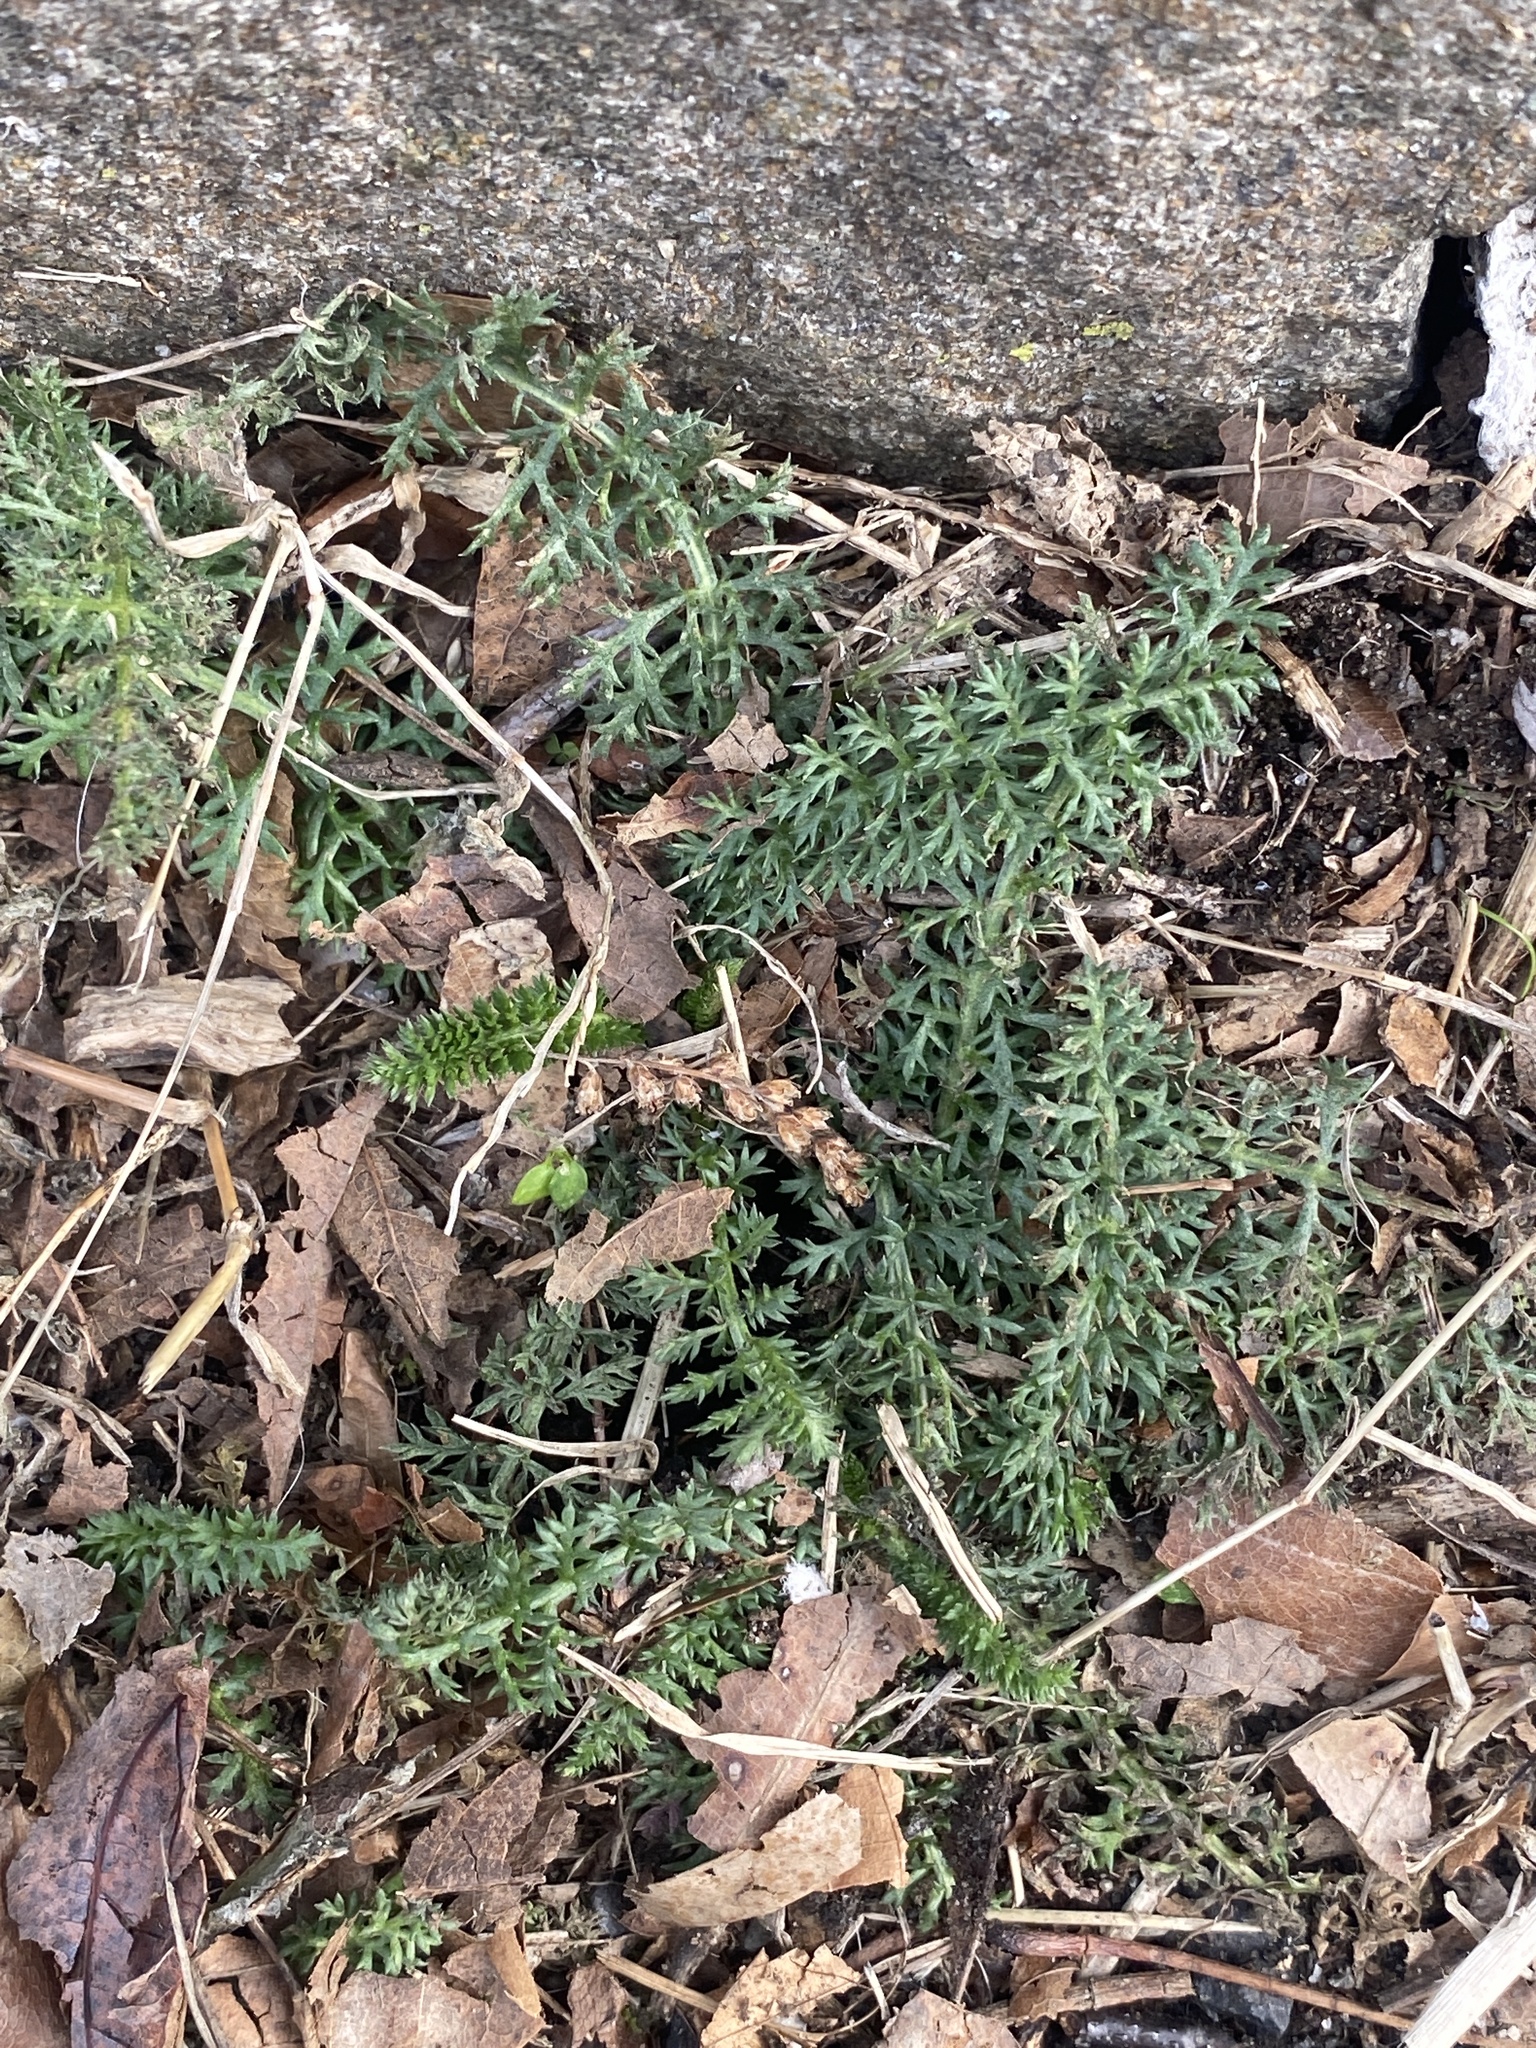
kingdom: Plantae
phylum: Tracheophyta
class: Magnoliopsida
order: Asterales
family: Asteraceae
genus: Achillea
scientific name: Achillea millefolium
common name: Yarrow
